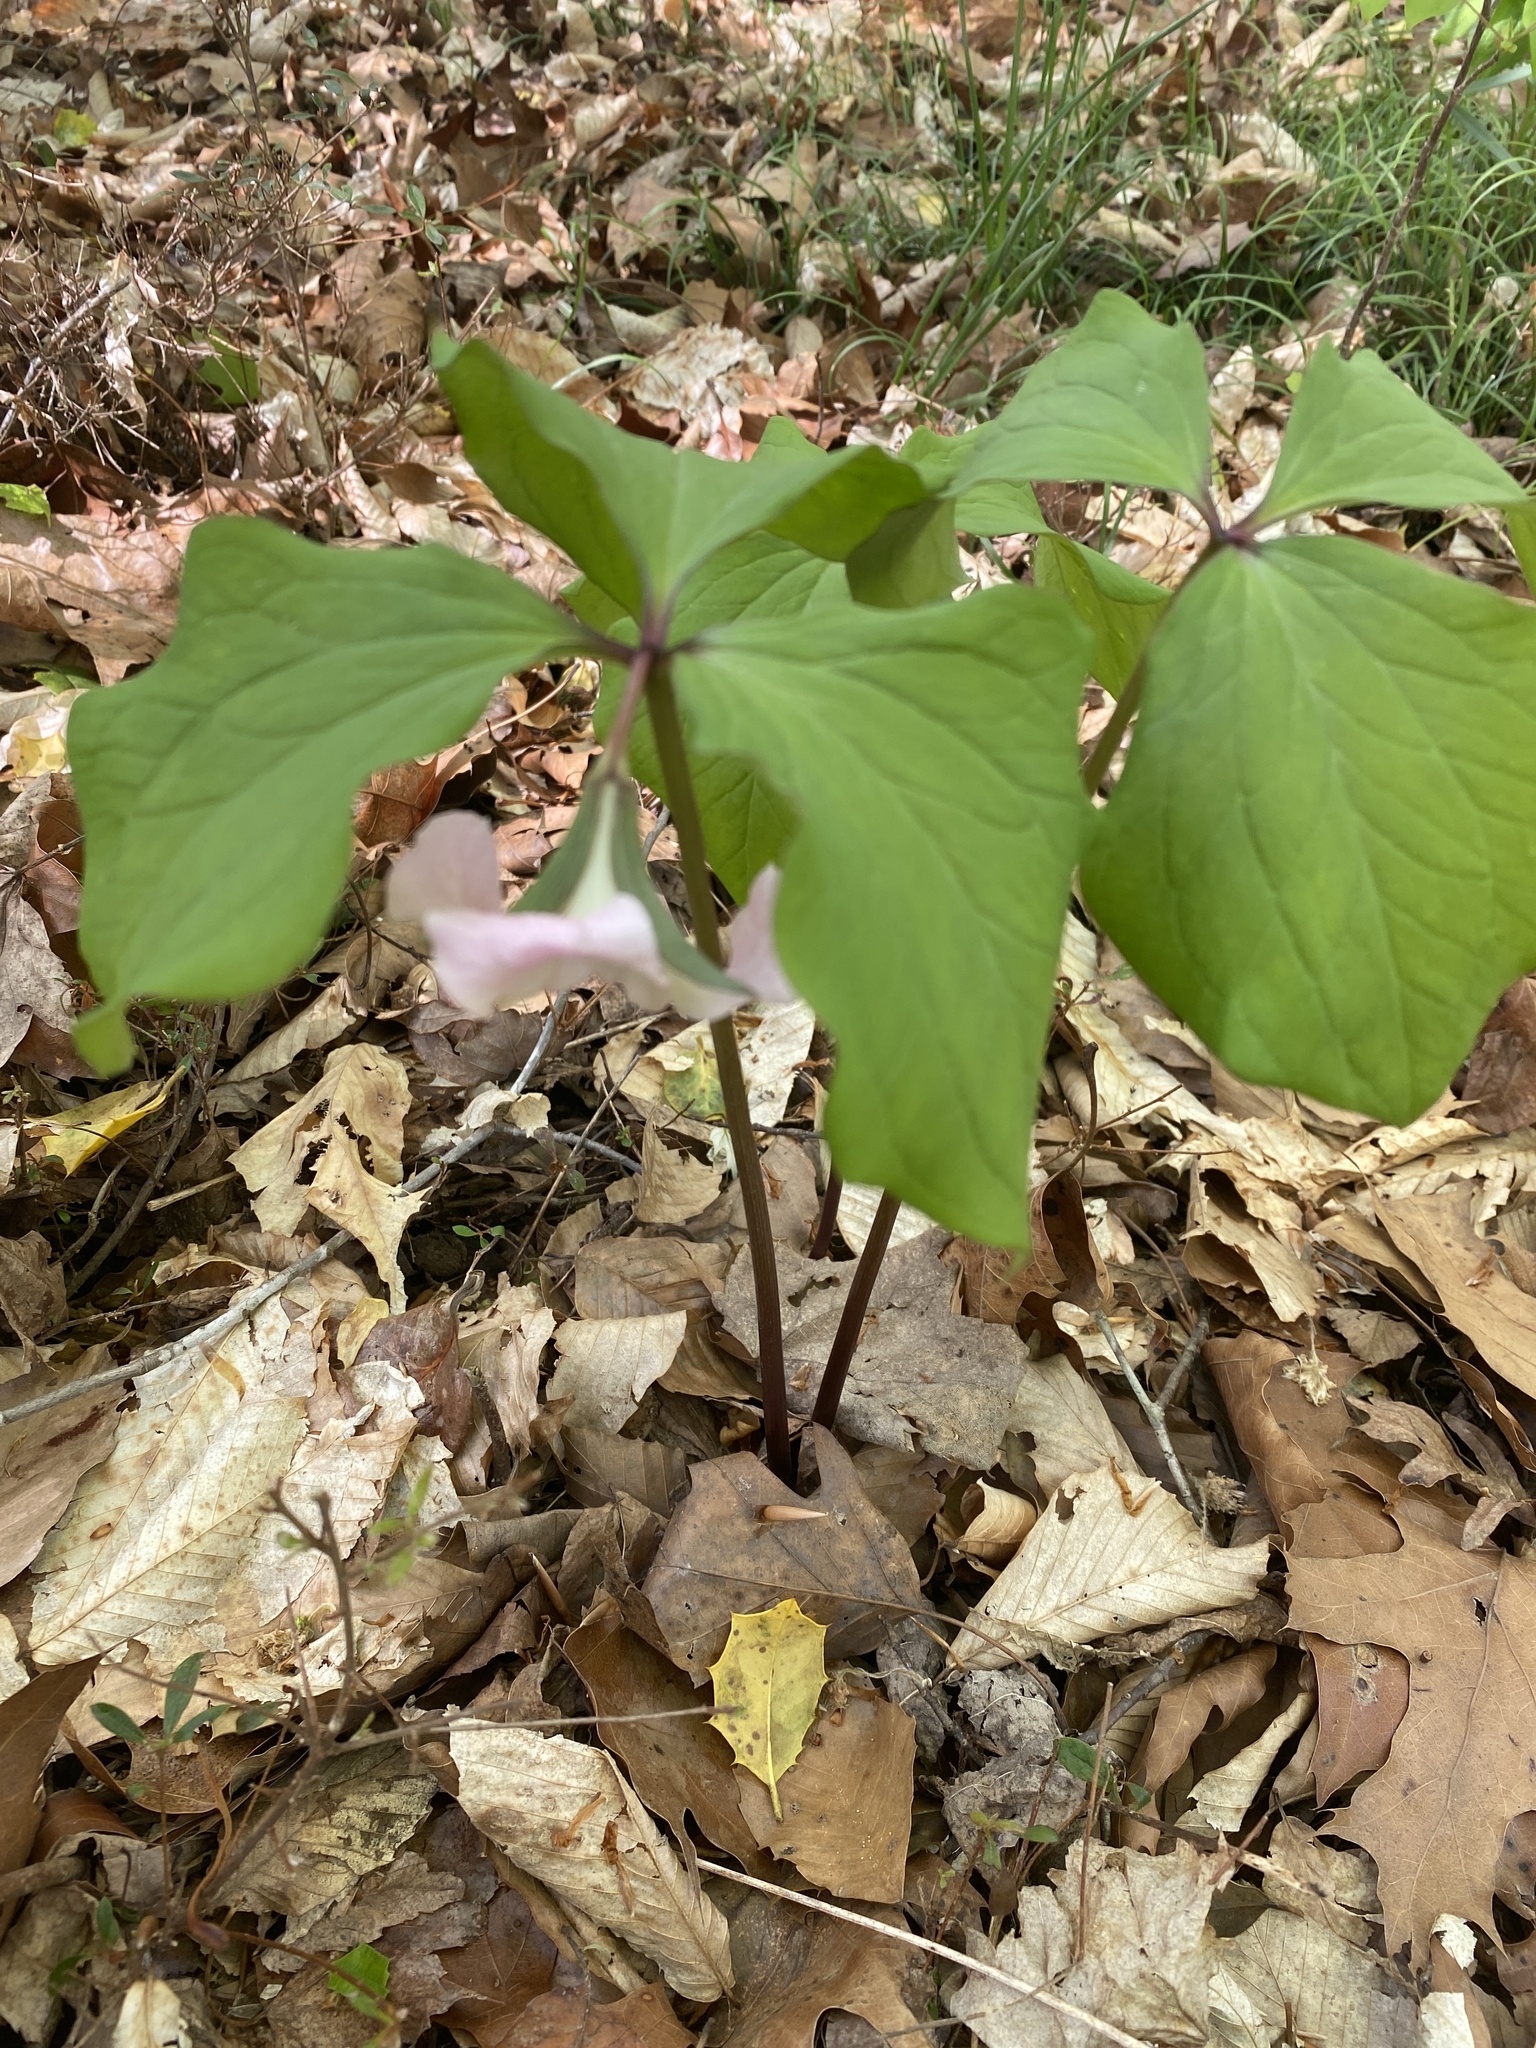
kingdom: Plantae
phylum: Tracheophyta
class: Liliopsida
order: Liliales
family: Melanthiaceae
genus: Trillium
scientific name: Trillium catesbaei
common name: Bashful trillium
